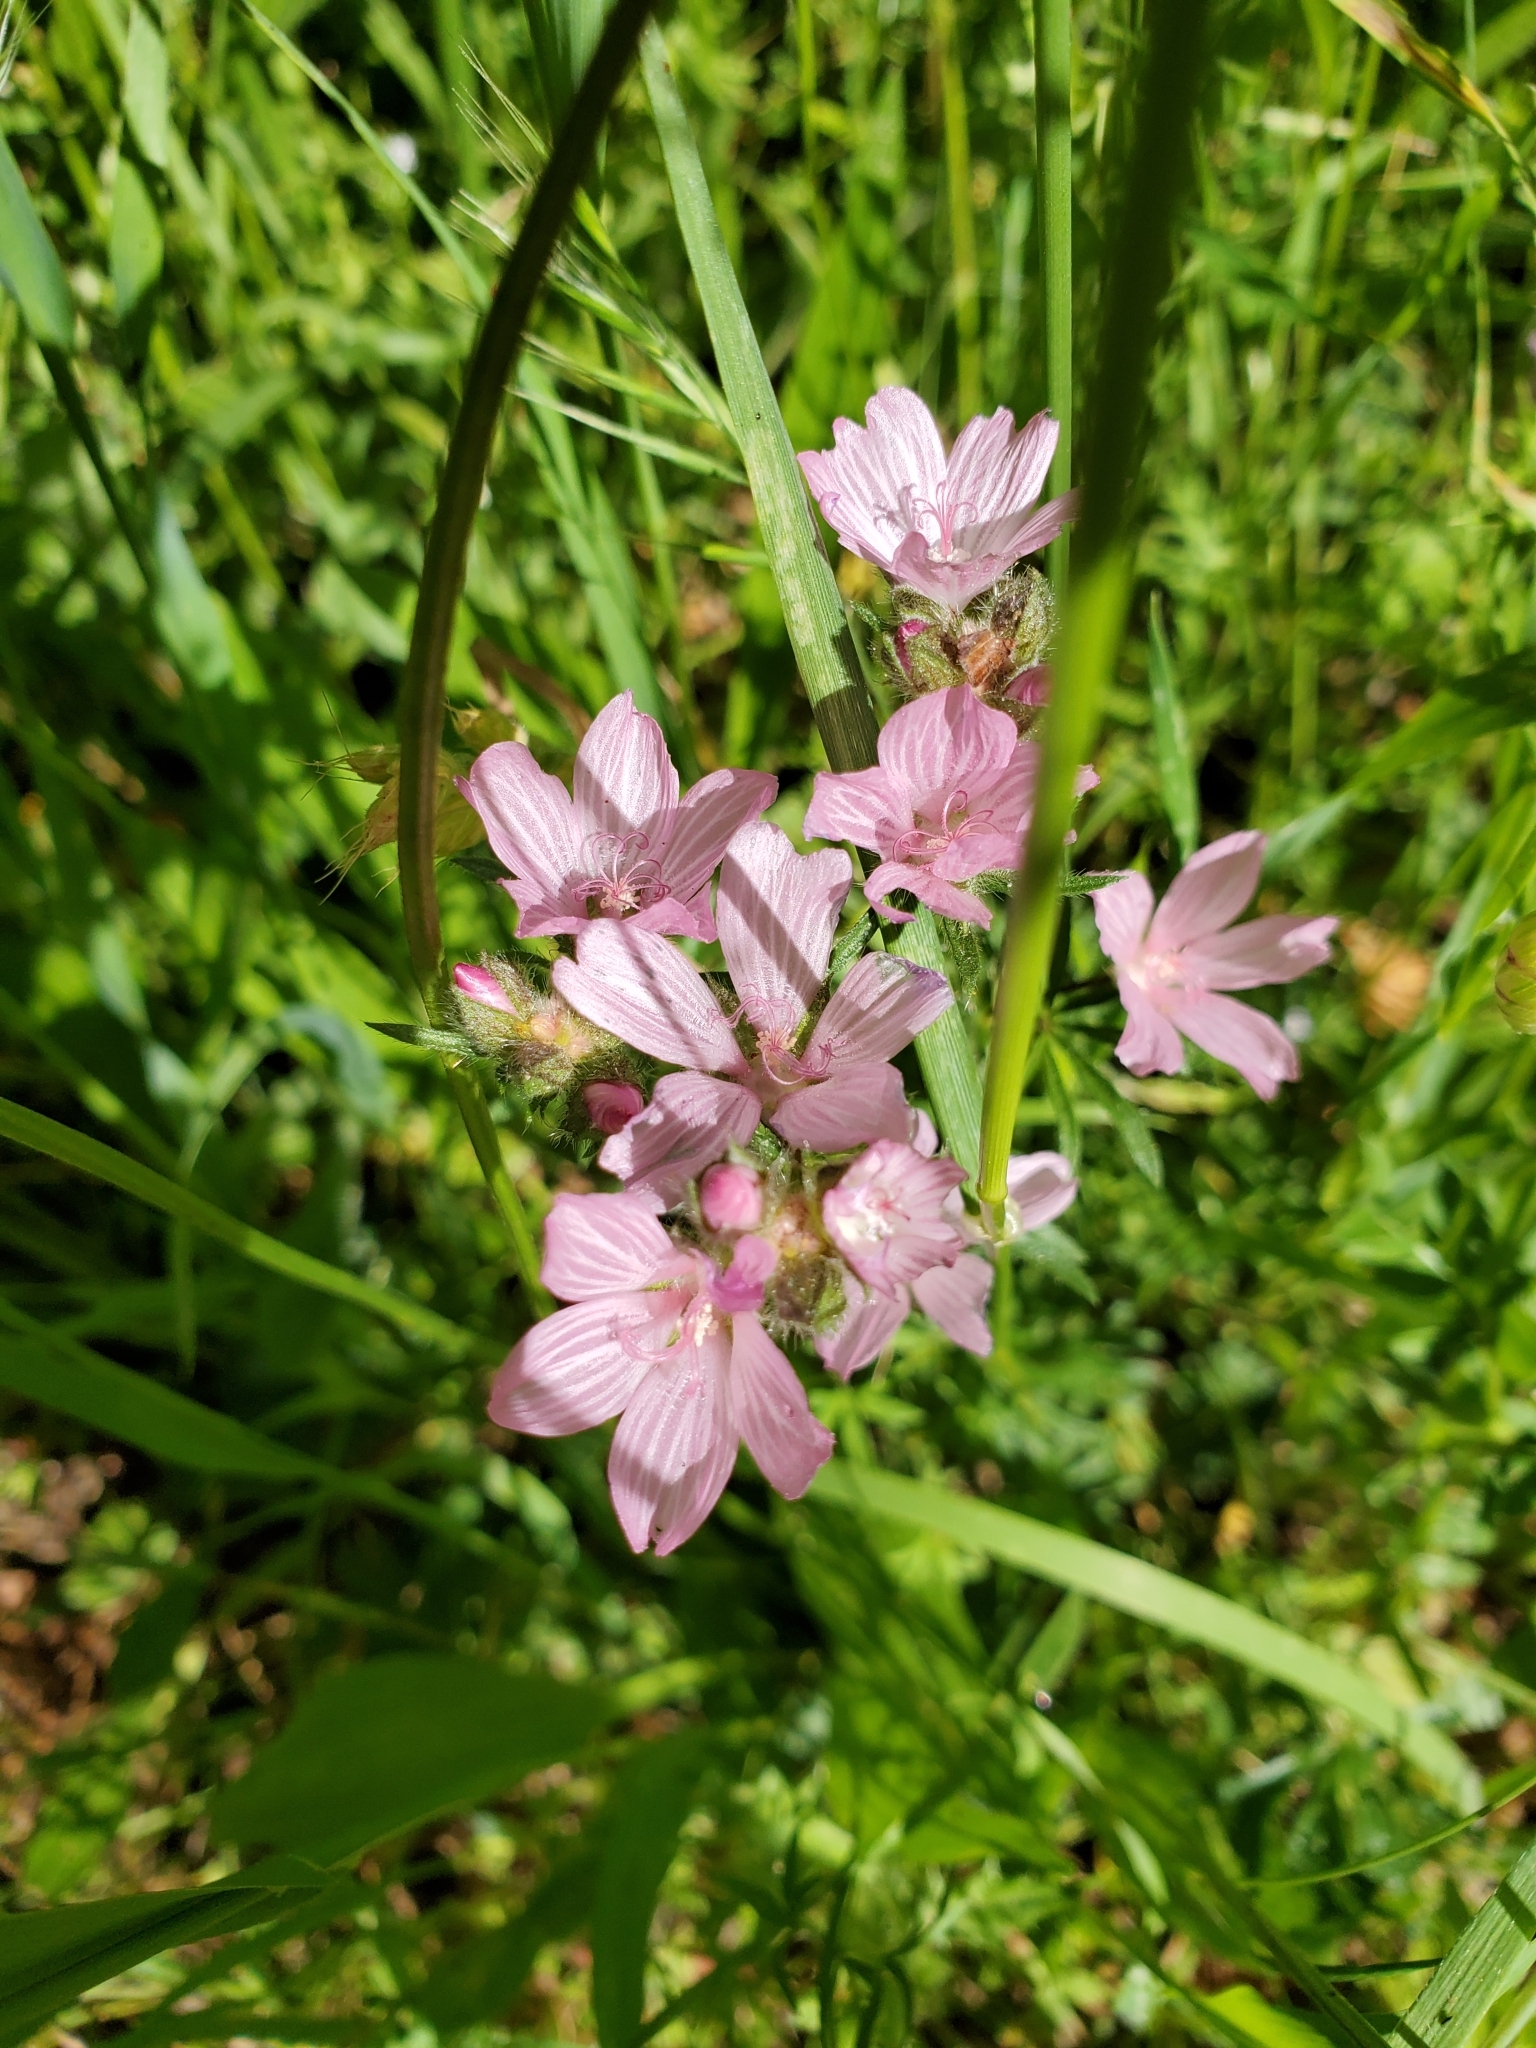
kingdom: Plantae
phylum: Tracheophyta
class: Magnoliopsida
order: Malvales
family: Malvaceae
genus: Sidalcea
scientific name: Sidalcea malviflora
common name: Greek mallow
